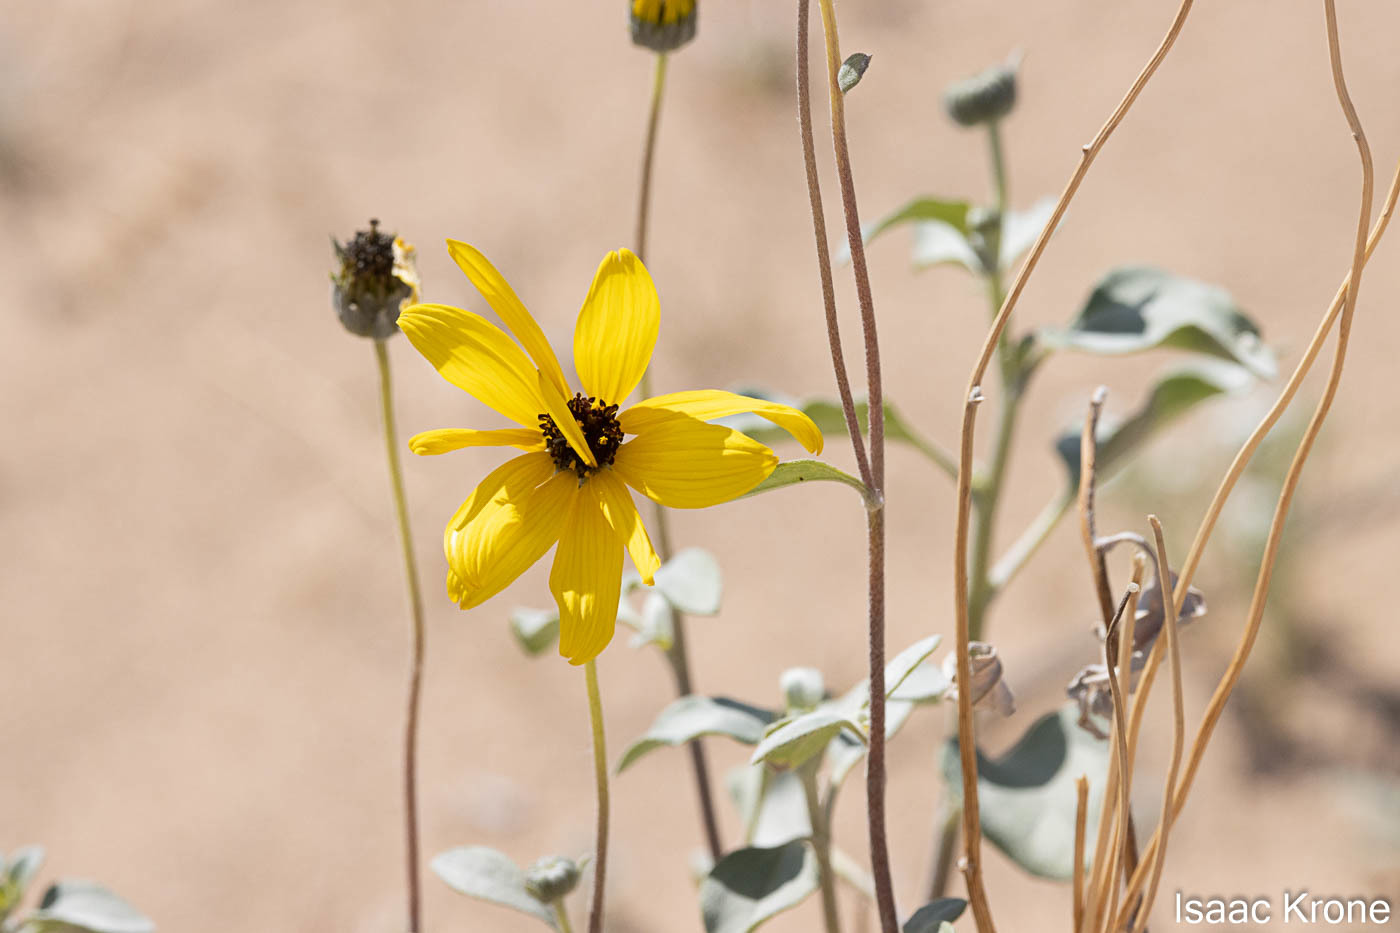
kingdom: Plantae
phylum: Tracheophyta
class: Magnoliopsida
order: Asterales
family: Asteraceae
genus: Helianthus
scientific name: Helianthus niveus
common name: Snowy sunflower
